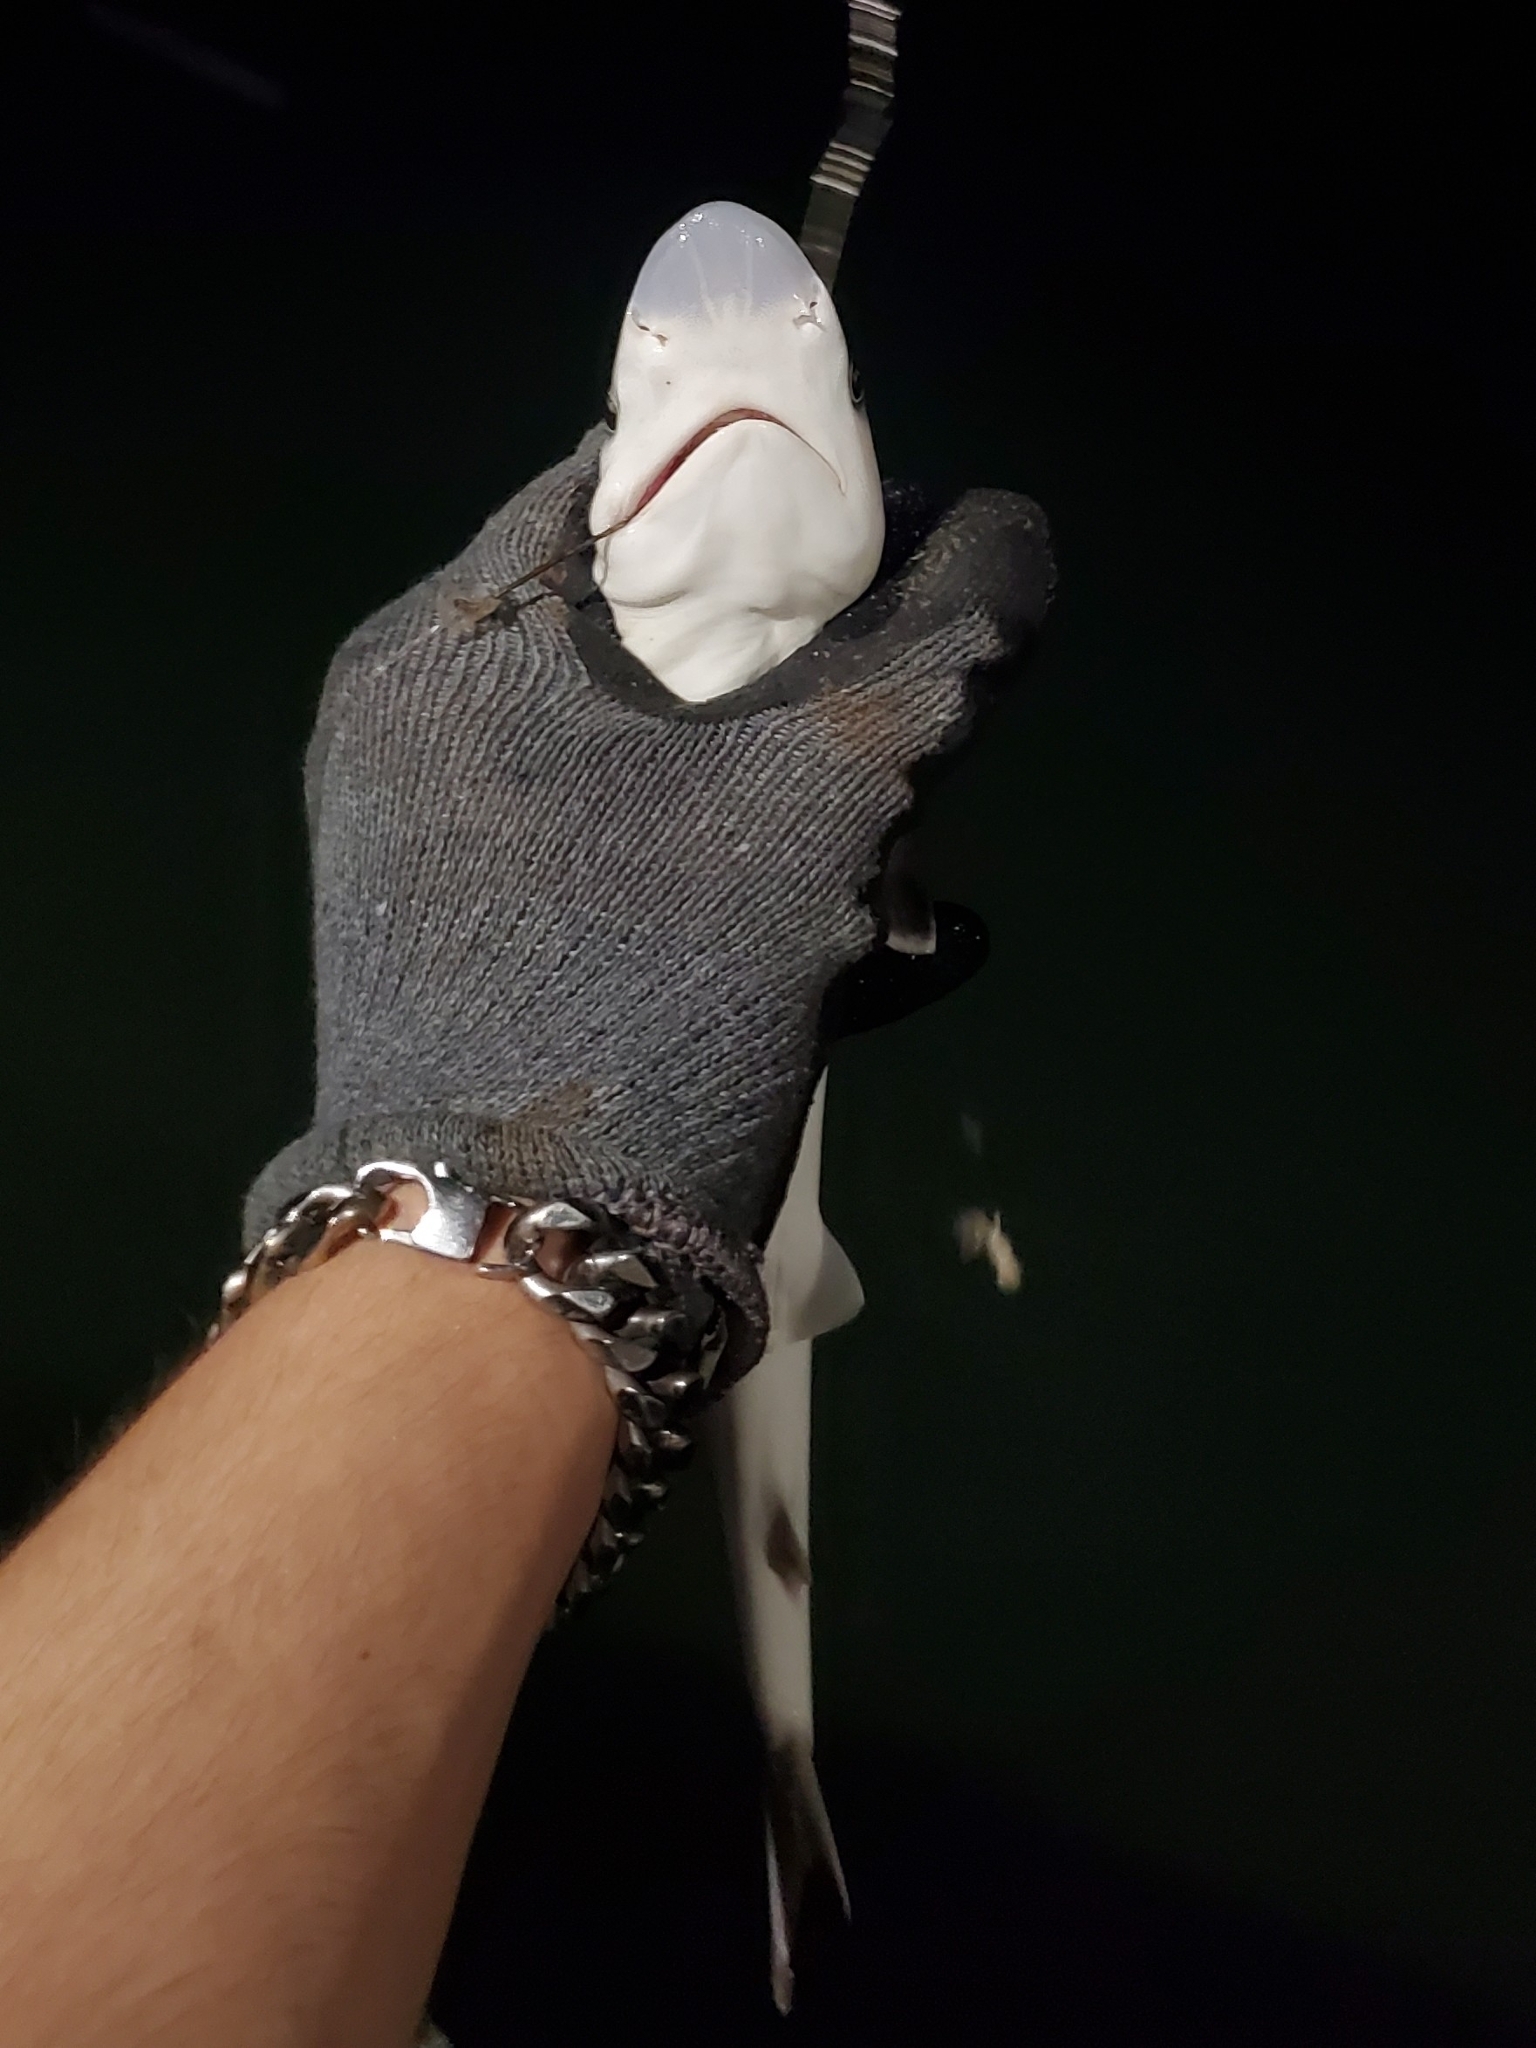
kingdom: Animalia
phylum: Chordata
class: Elasmobranchii
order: Carcharhiniformes
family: Carcharhinidae
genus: Rhizoprionodon
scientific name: Rhizoprionodon terraenovae
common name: Atlantic sharpnose shark
